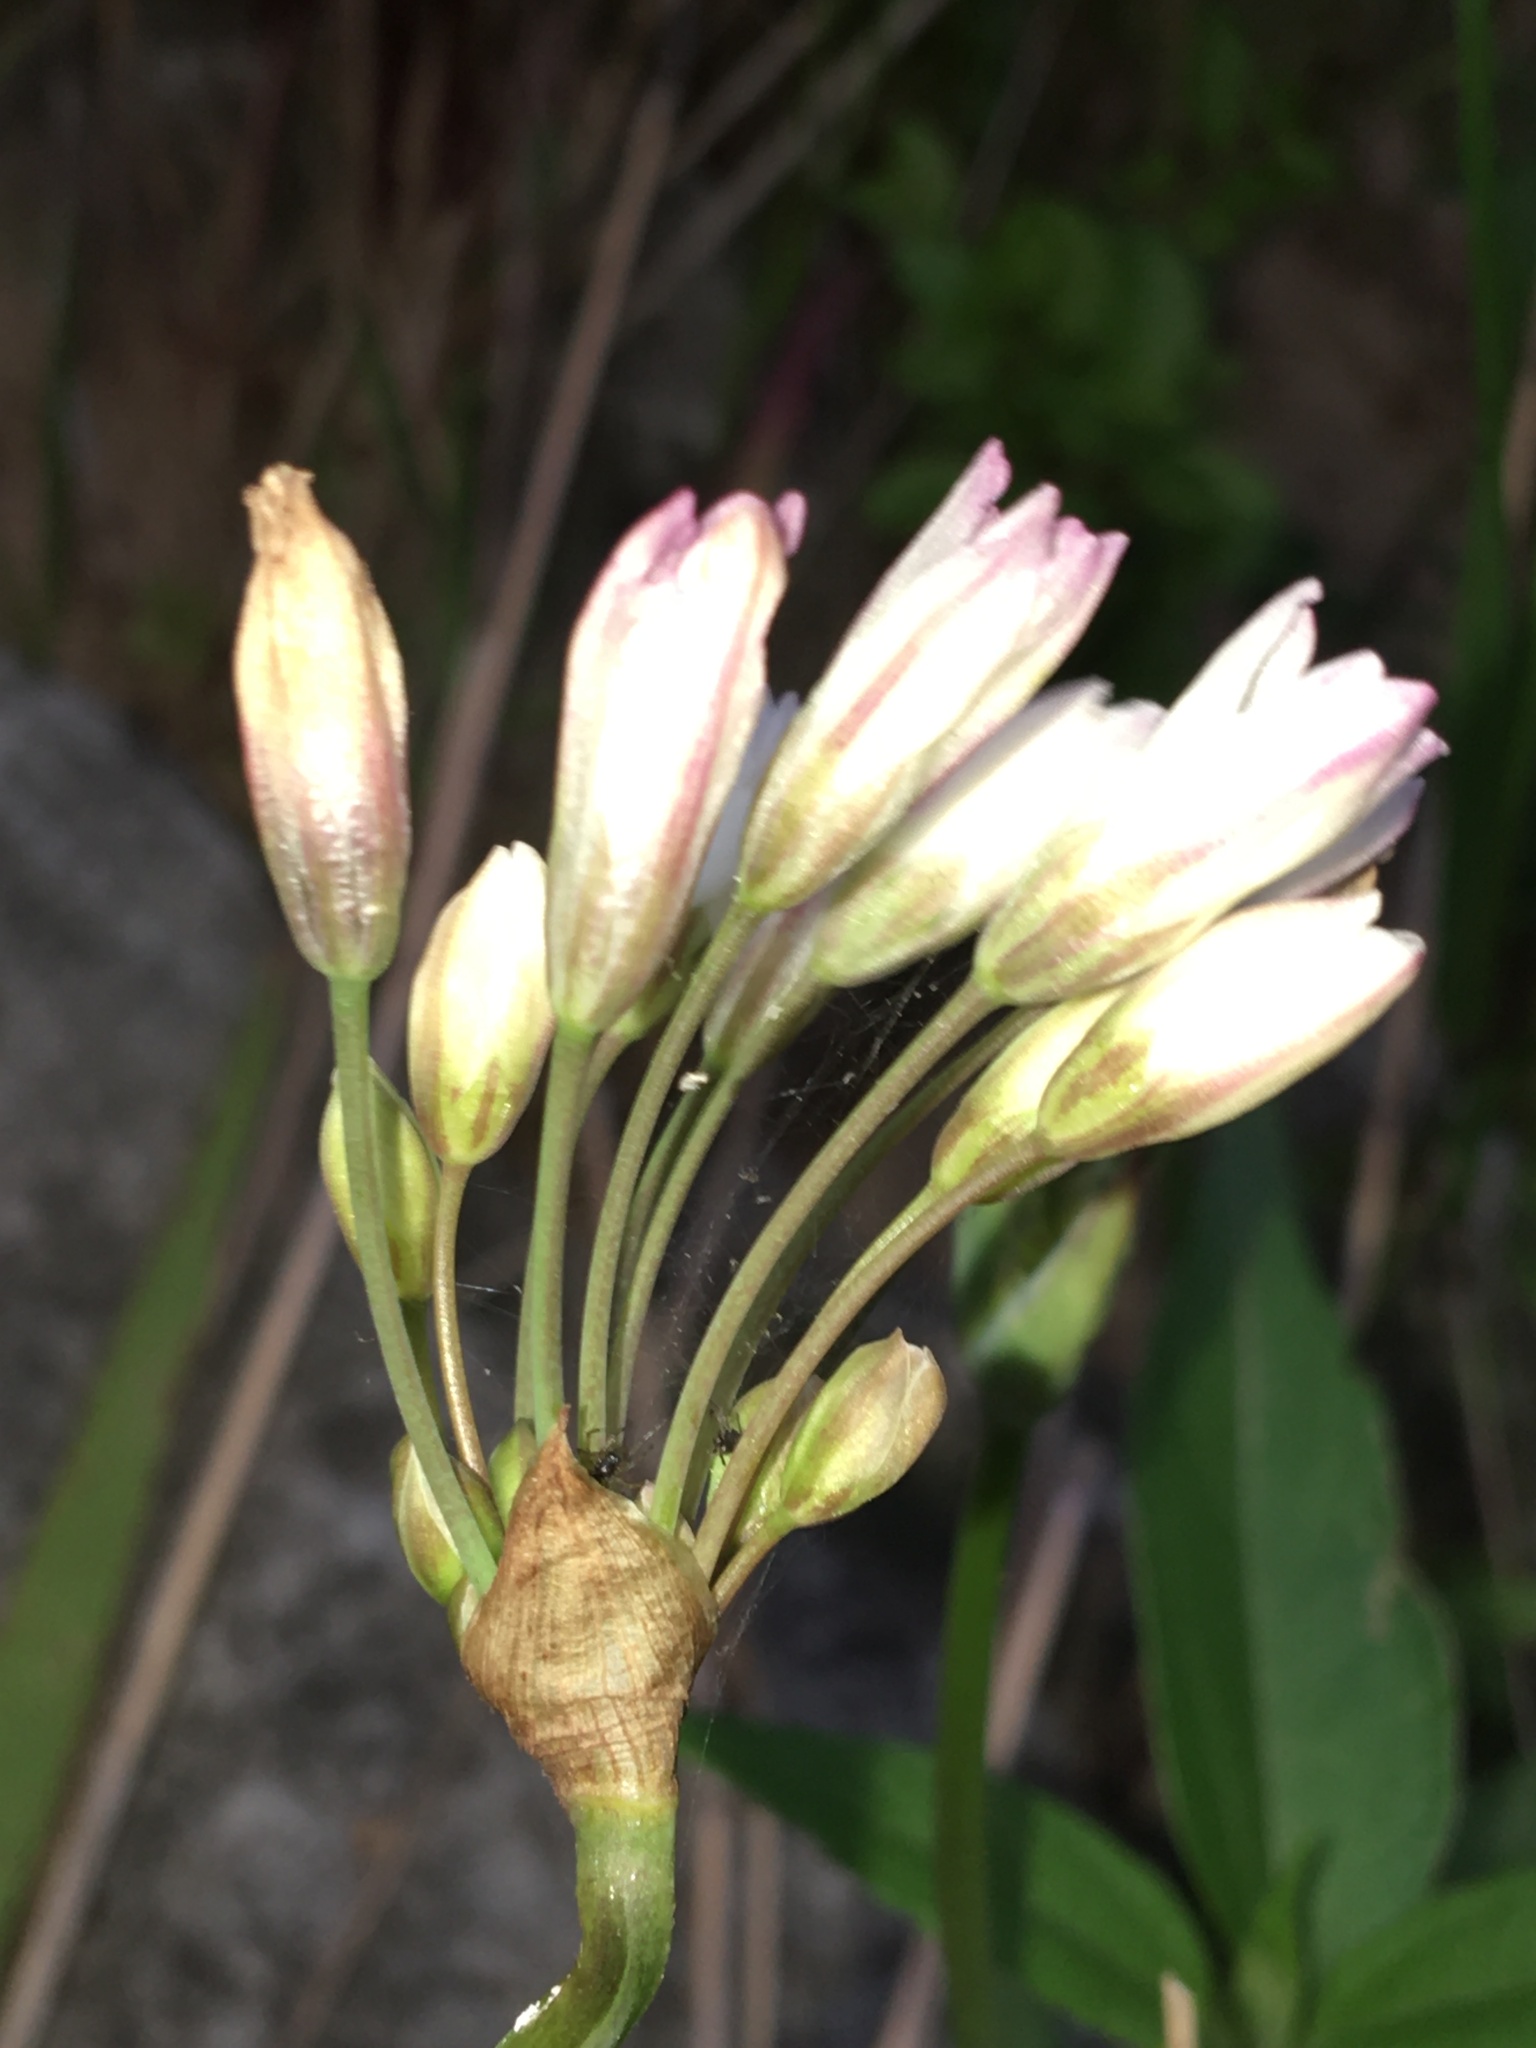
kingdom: Plantae
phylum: Tracheophyta
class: Liliopsida
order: Asparagales
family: Amaryllidaceae
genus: Nothoscordum
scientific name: Nothoscordum gracile
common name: Slender false garlic
